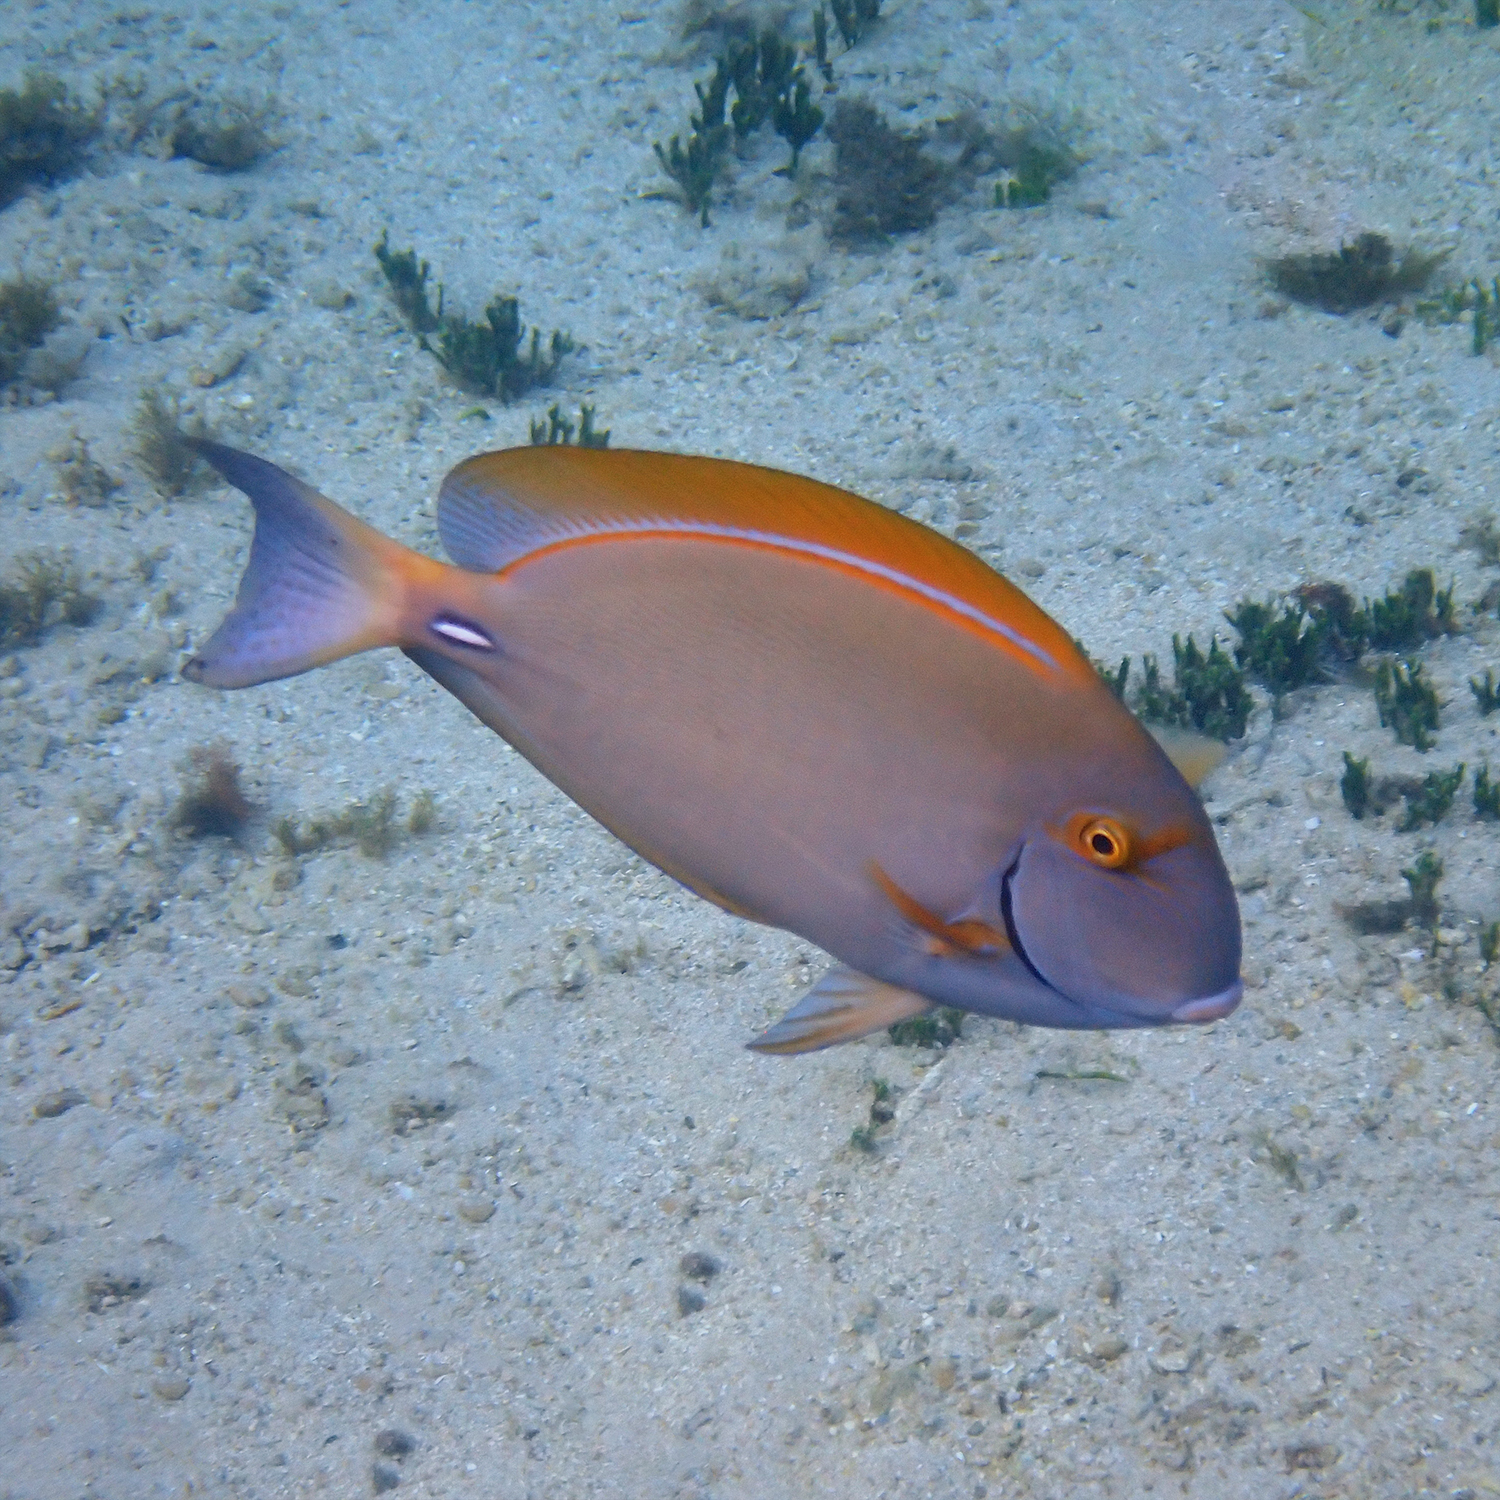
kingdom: Animalia
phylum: Chordata
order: Perciformes
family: Acanthuridae
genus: Acanthurus
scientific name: Acanthurus dussumieri
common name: Dussumier's surgeonfish
